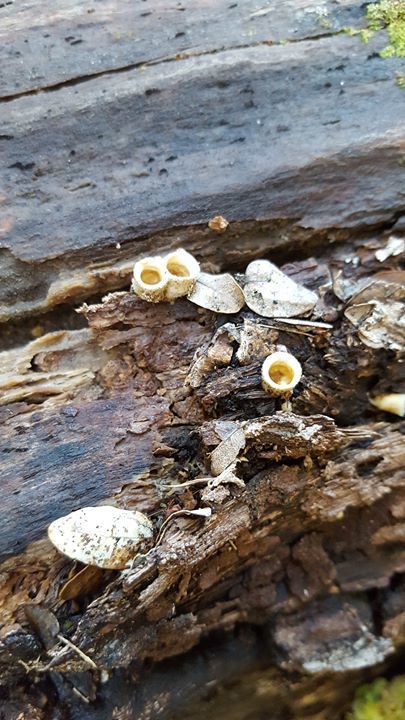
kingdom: Fungi
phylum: Basidiomycota
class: Agaricomycetes
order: Agaricales
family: Agaricaceae
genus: Nidula
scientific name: Nidula niveotomentosa
